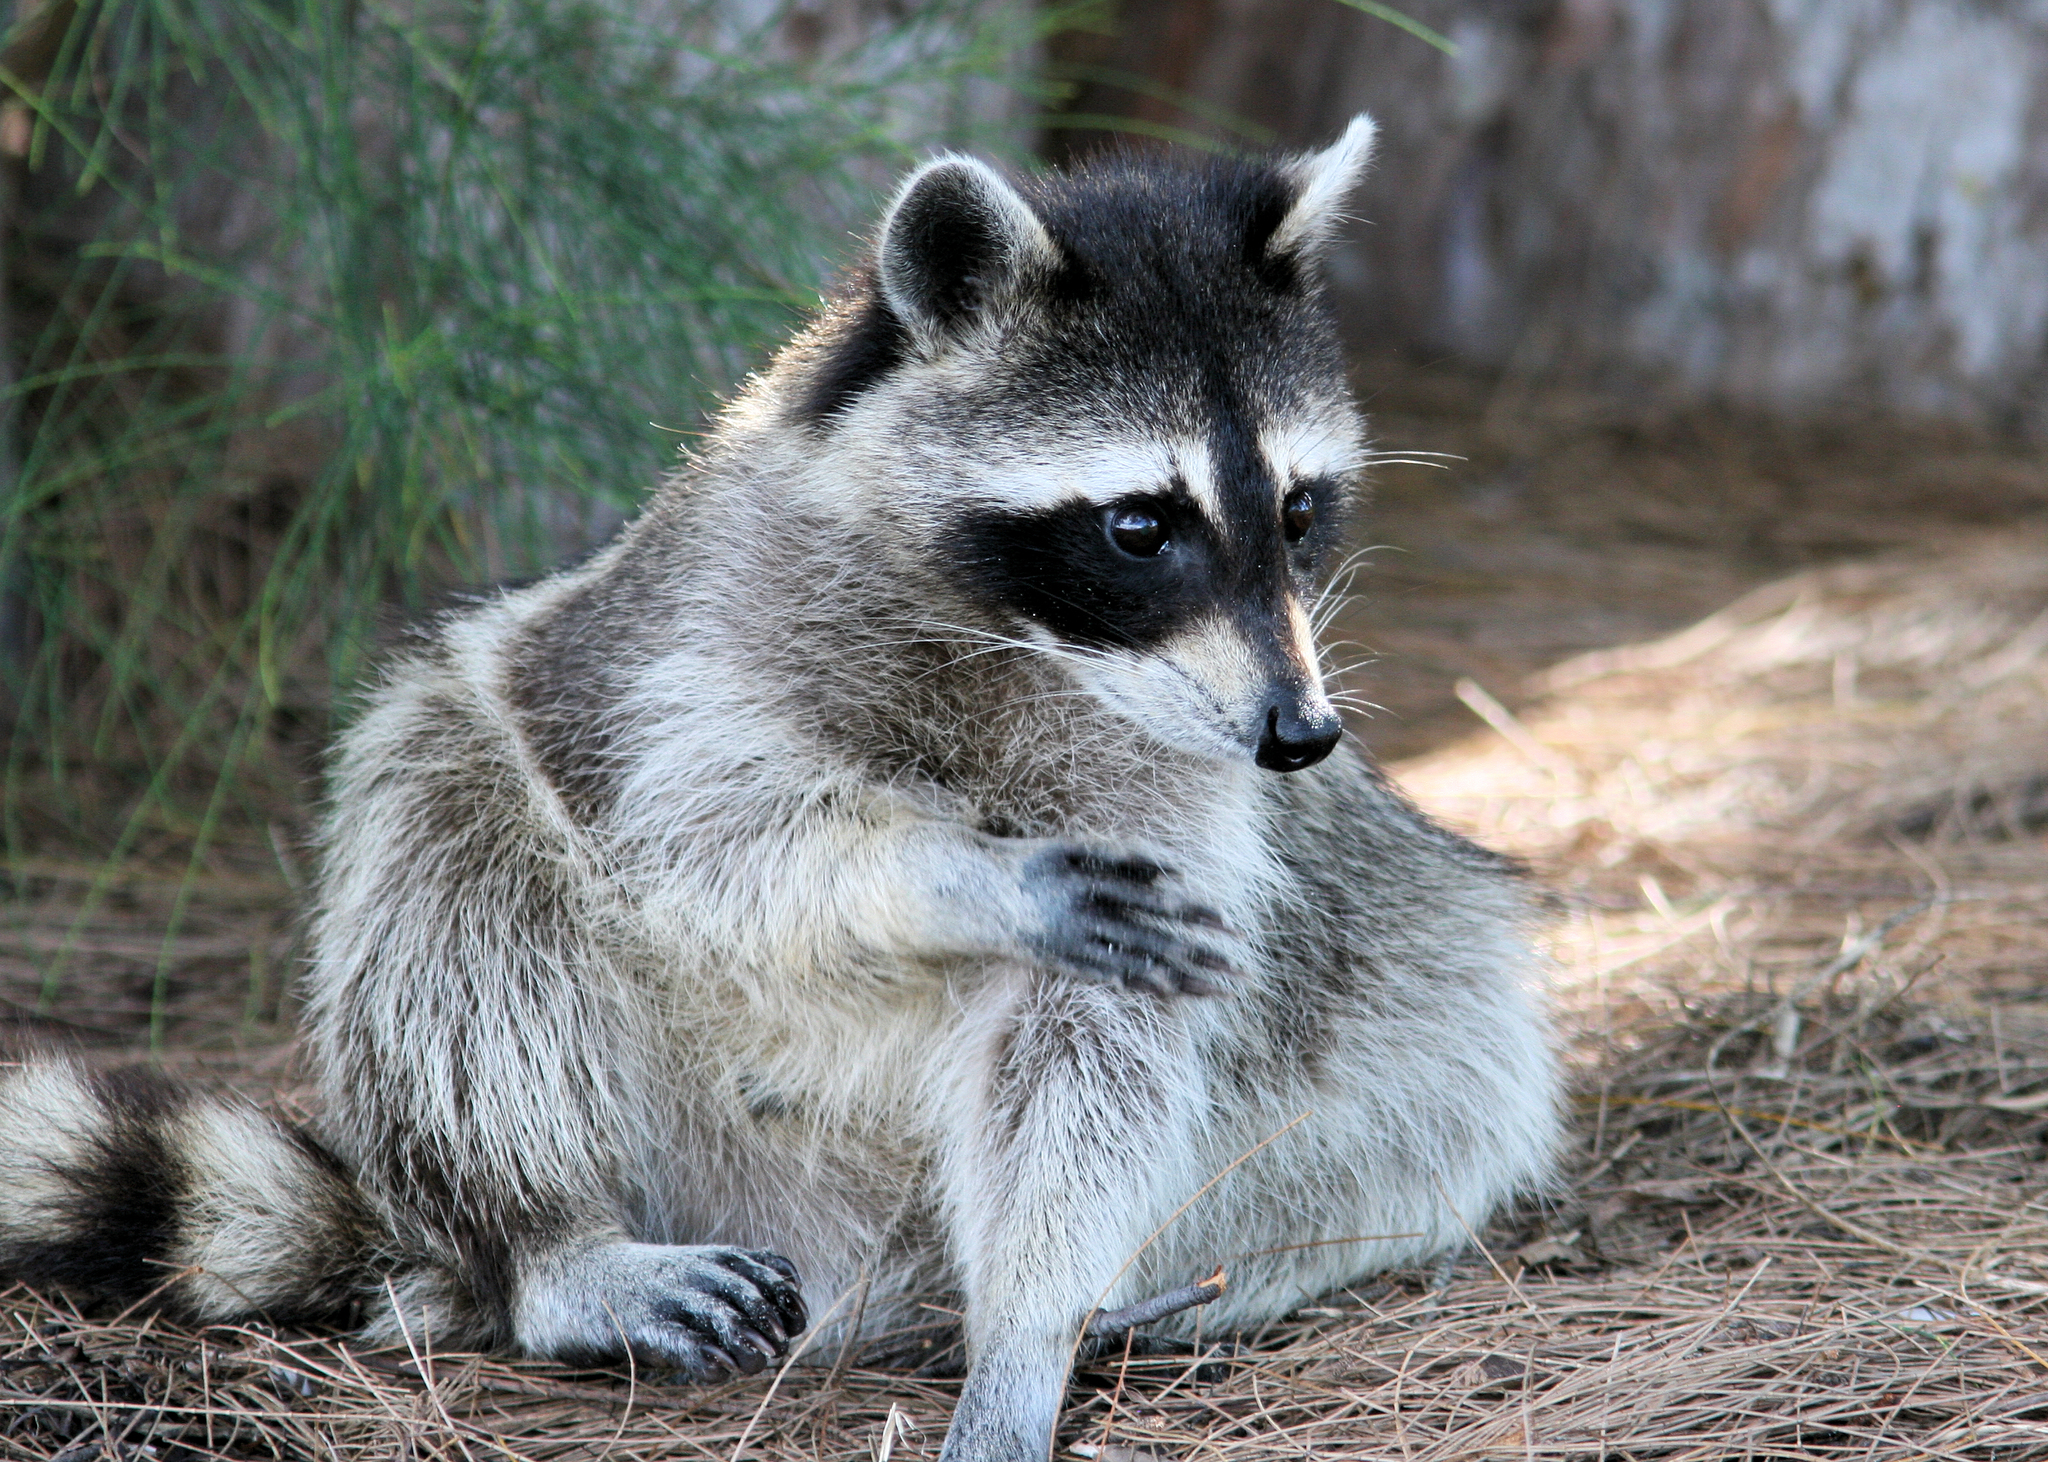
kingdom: Animalia
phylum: Chordata
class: Mammalia
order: Carnivora
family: Procyonidae
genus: Procyon
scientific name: Procyon lotor
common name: Raccoon
